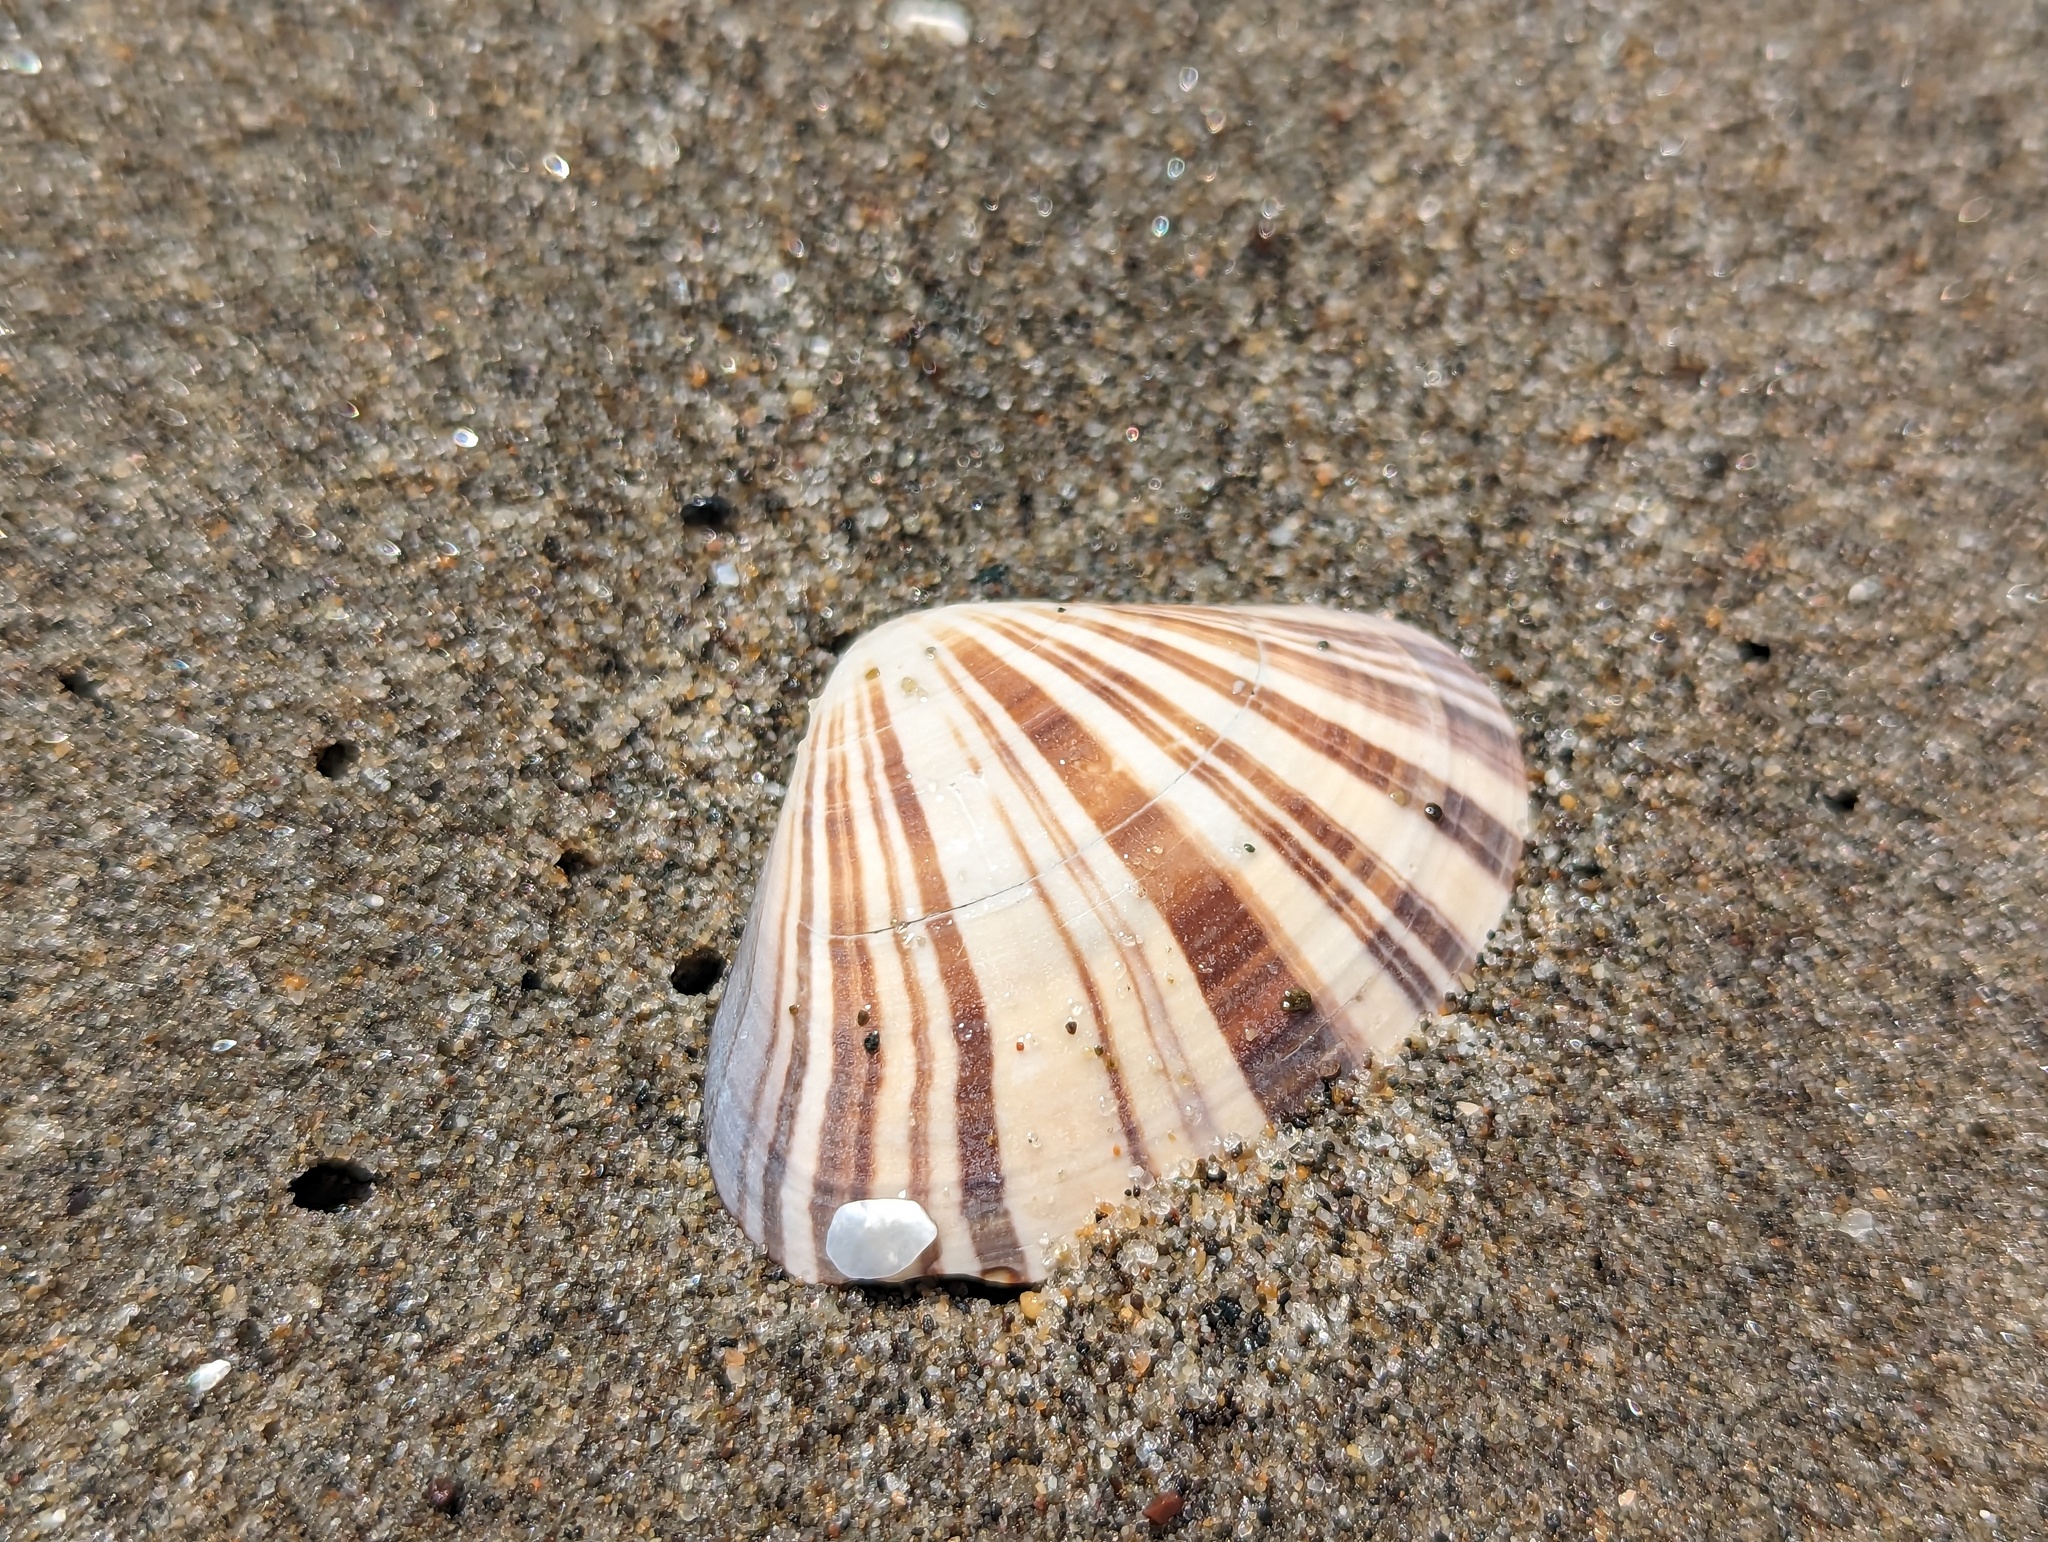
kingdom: Animalia
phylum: Mollusca
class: Bivalvia
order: Venerida
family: Veneridae
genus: Tivela
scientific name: Tivela stultorum
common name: Pismo clam
